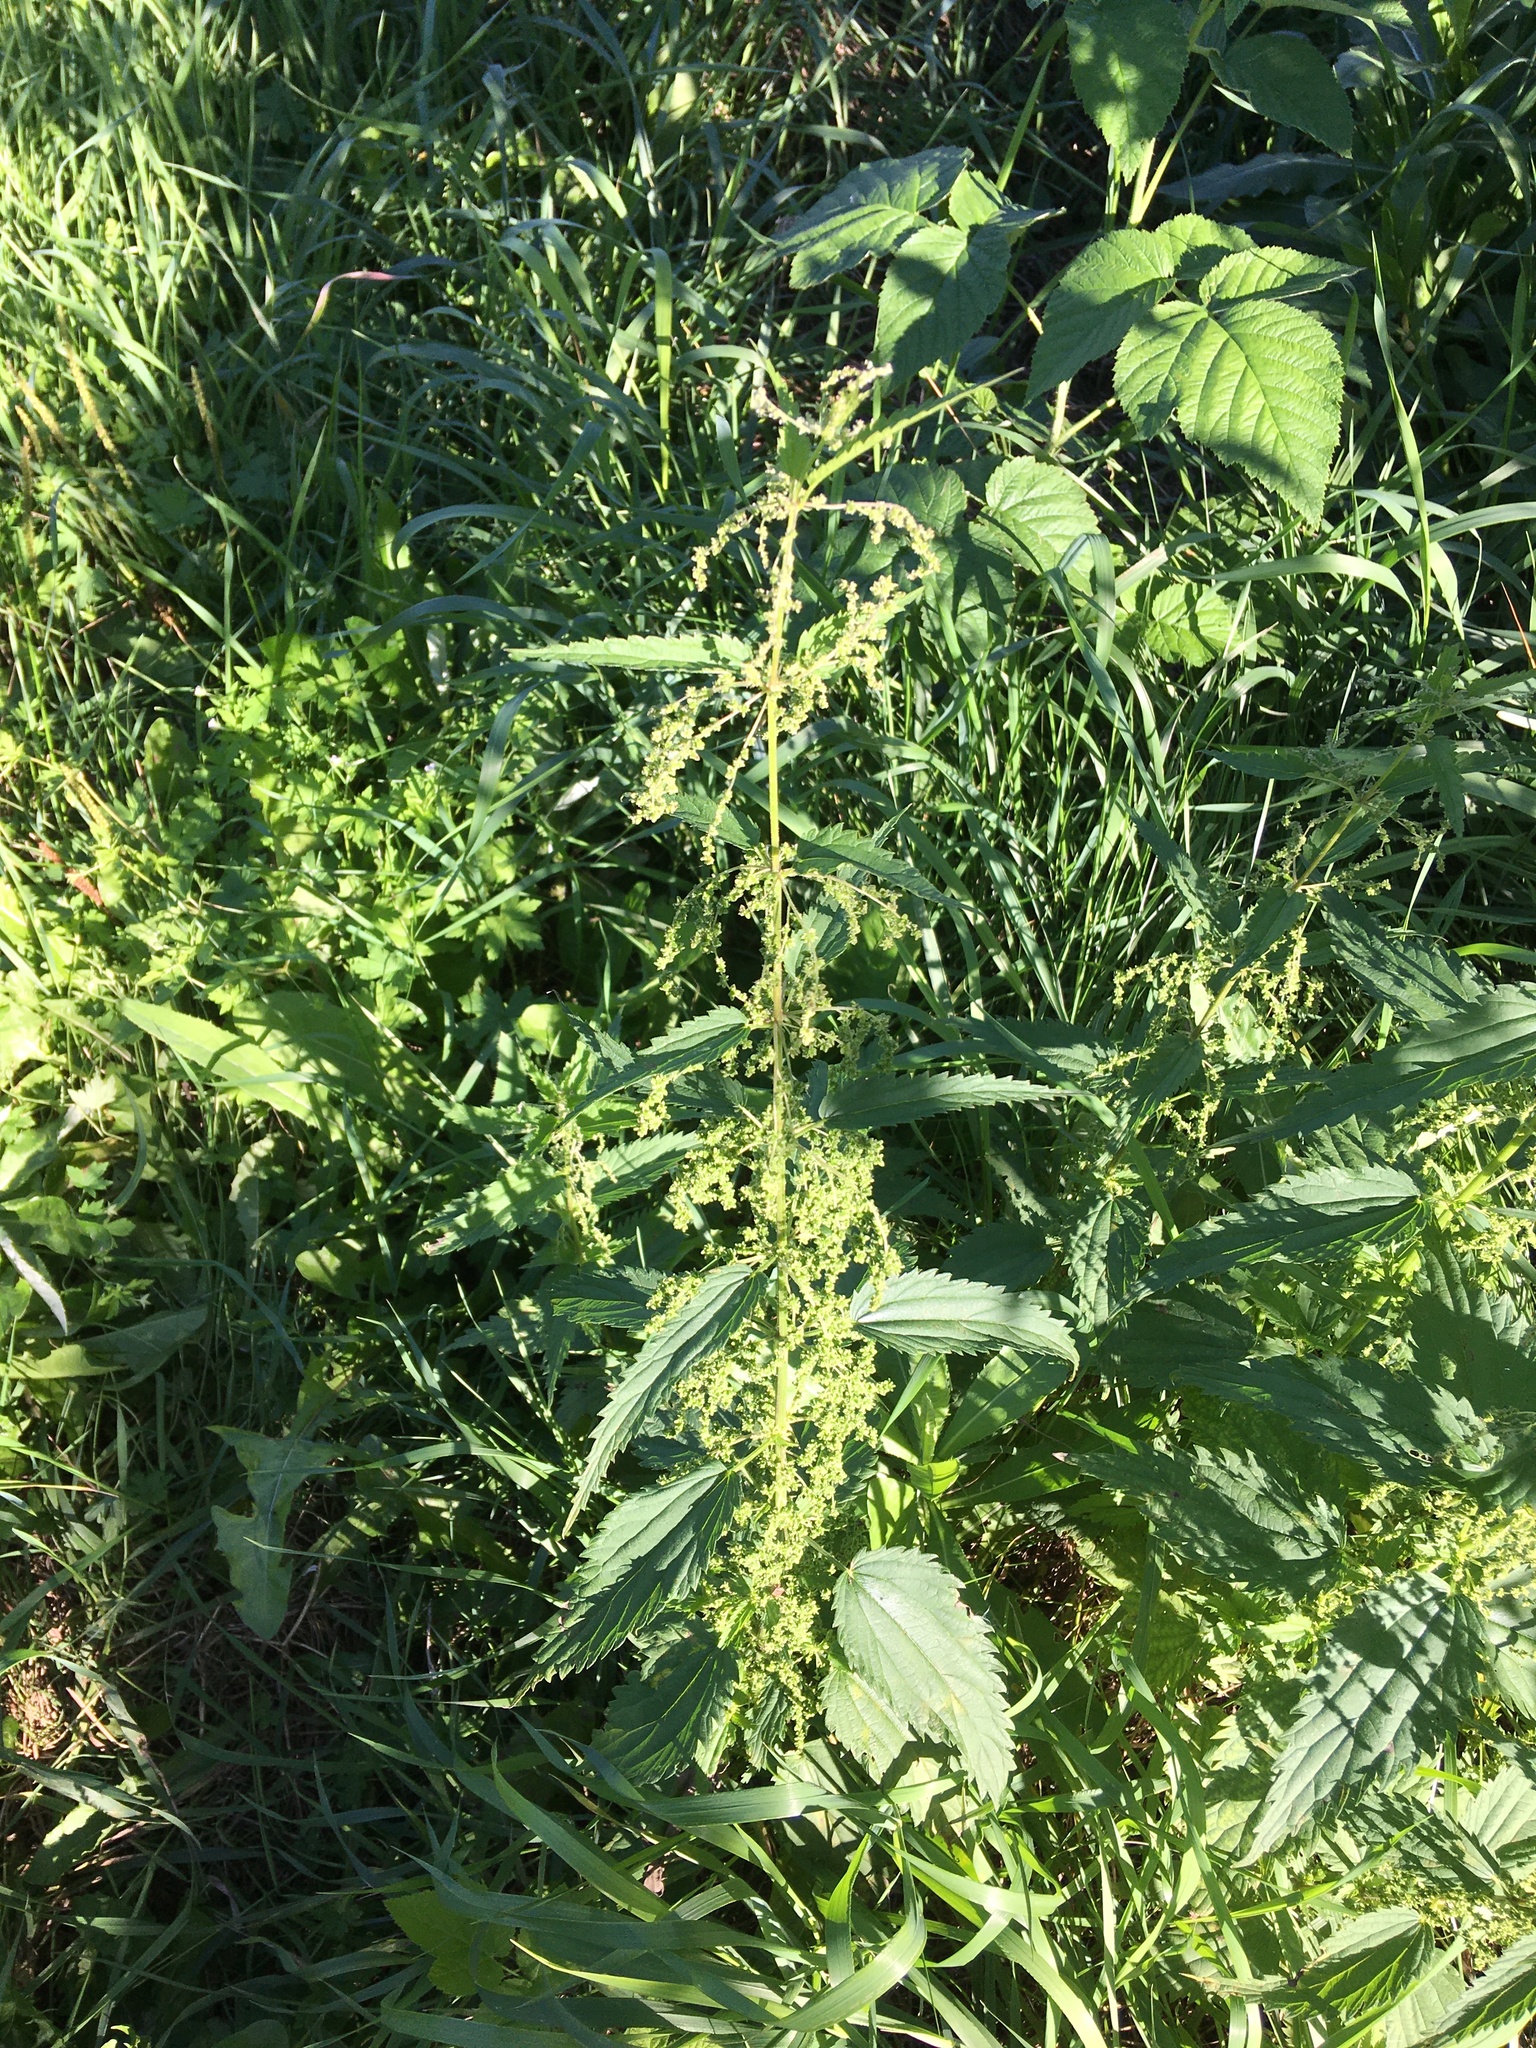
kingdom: Plantae
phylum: Tracheophyta
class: Magnoliopsida
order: Rosales
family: Urticaceae
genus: Urtica
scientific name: Urtica dioica
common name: Common nettle
